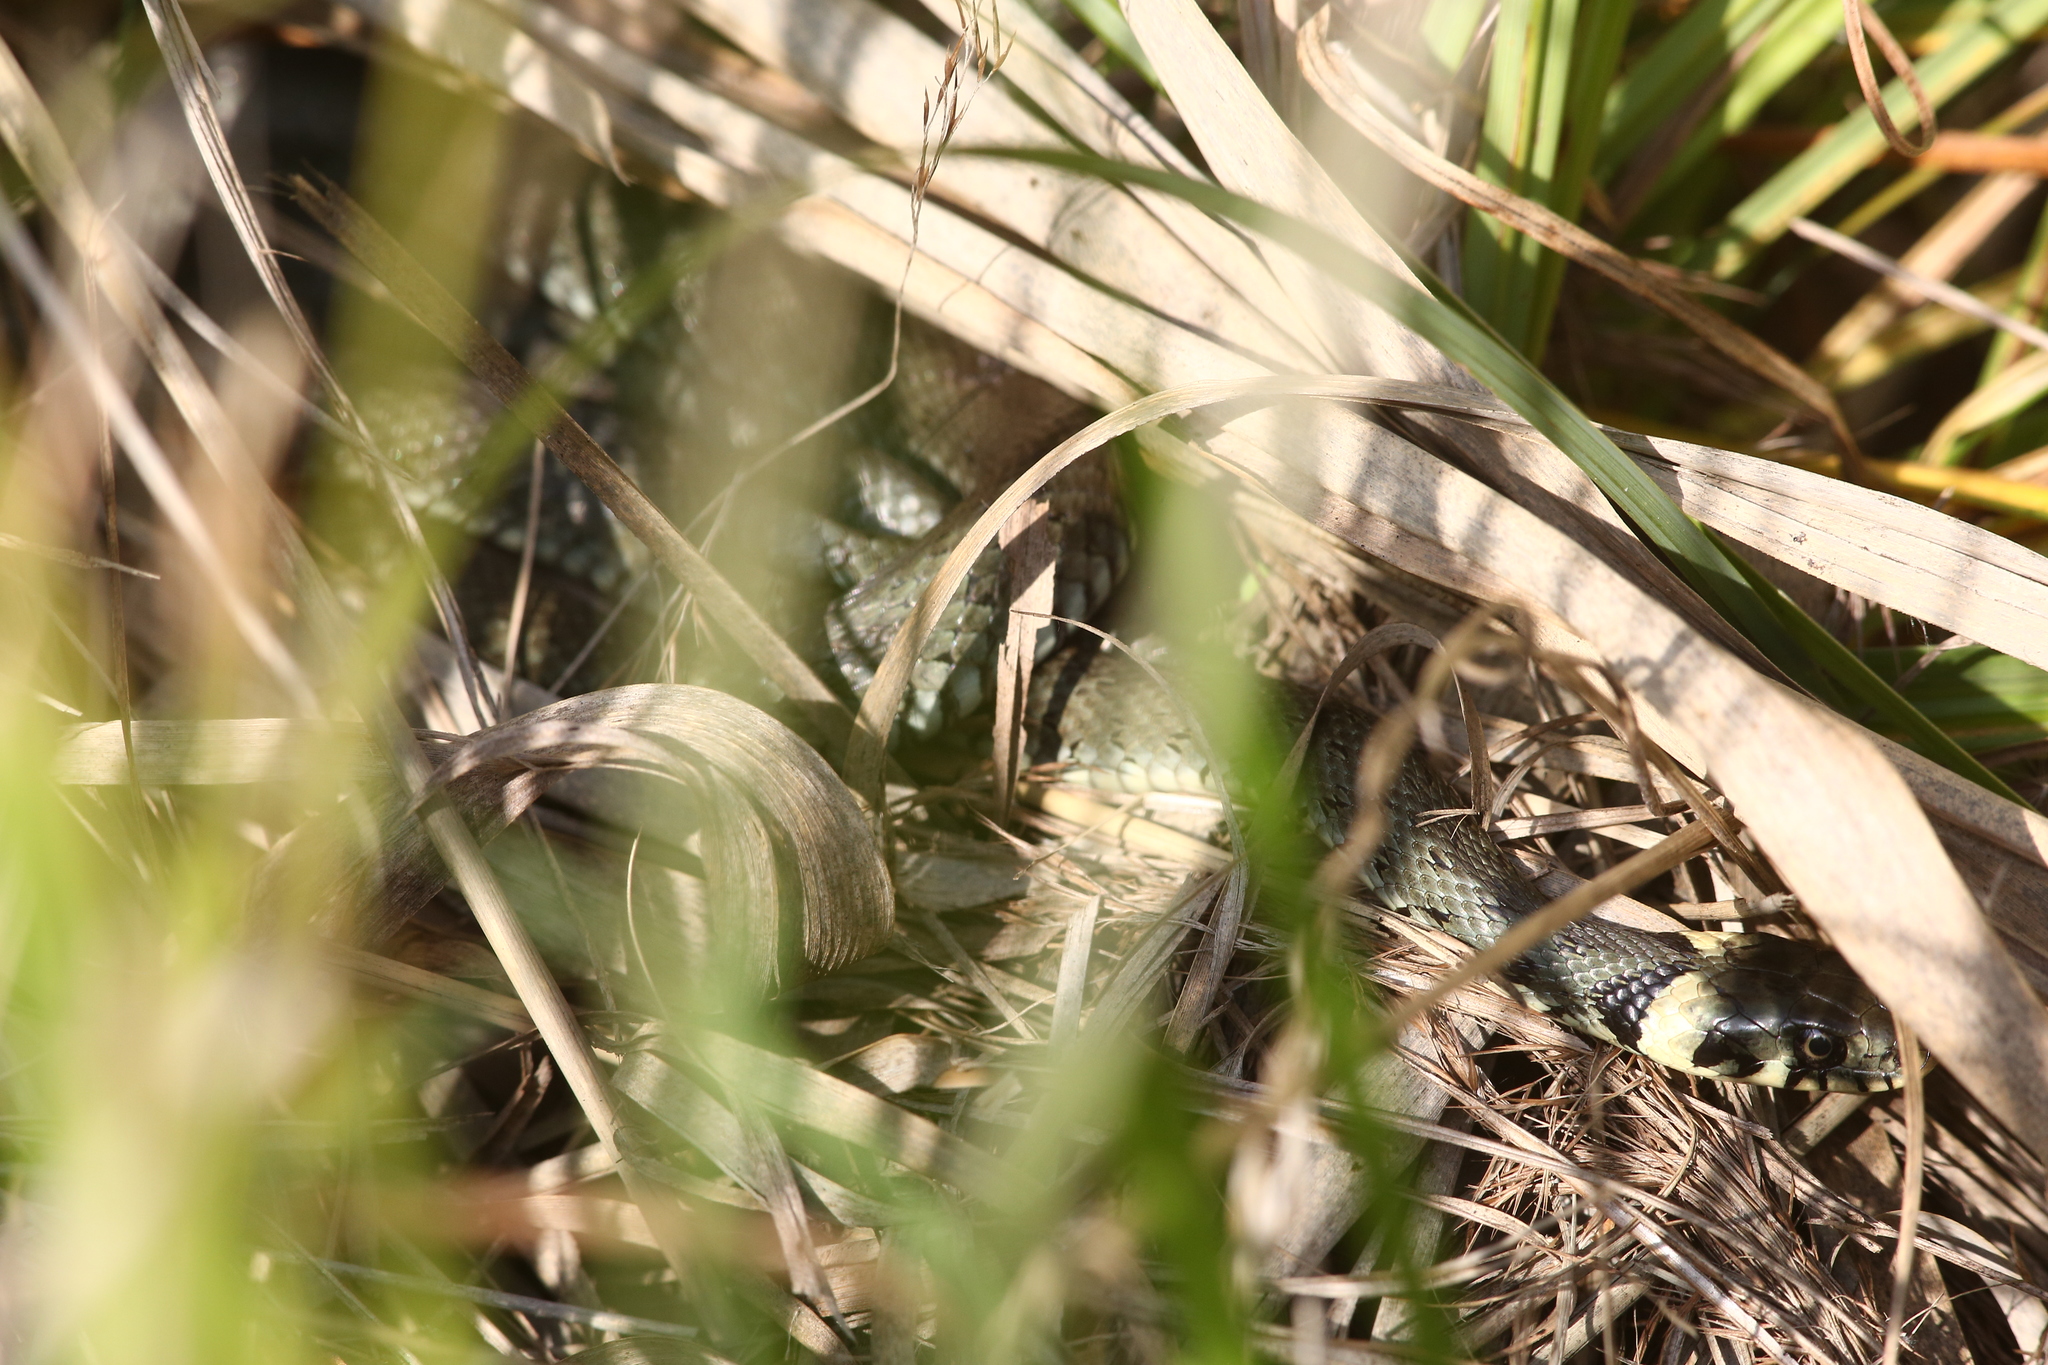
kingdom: Animalia
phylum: Chordata
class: Squamata
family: Colubridae
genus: Natrix
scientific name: Natrix natrix
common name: Grass snake
